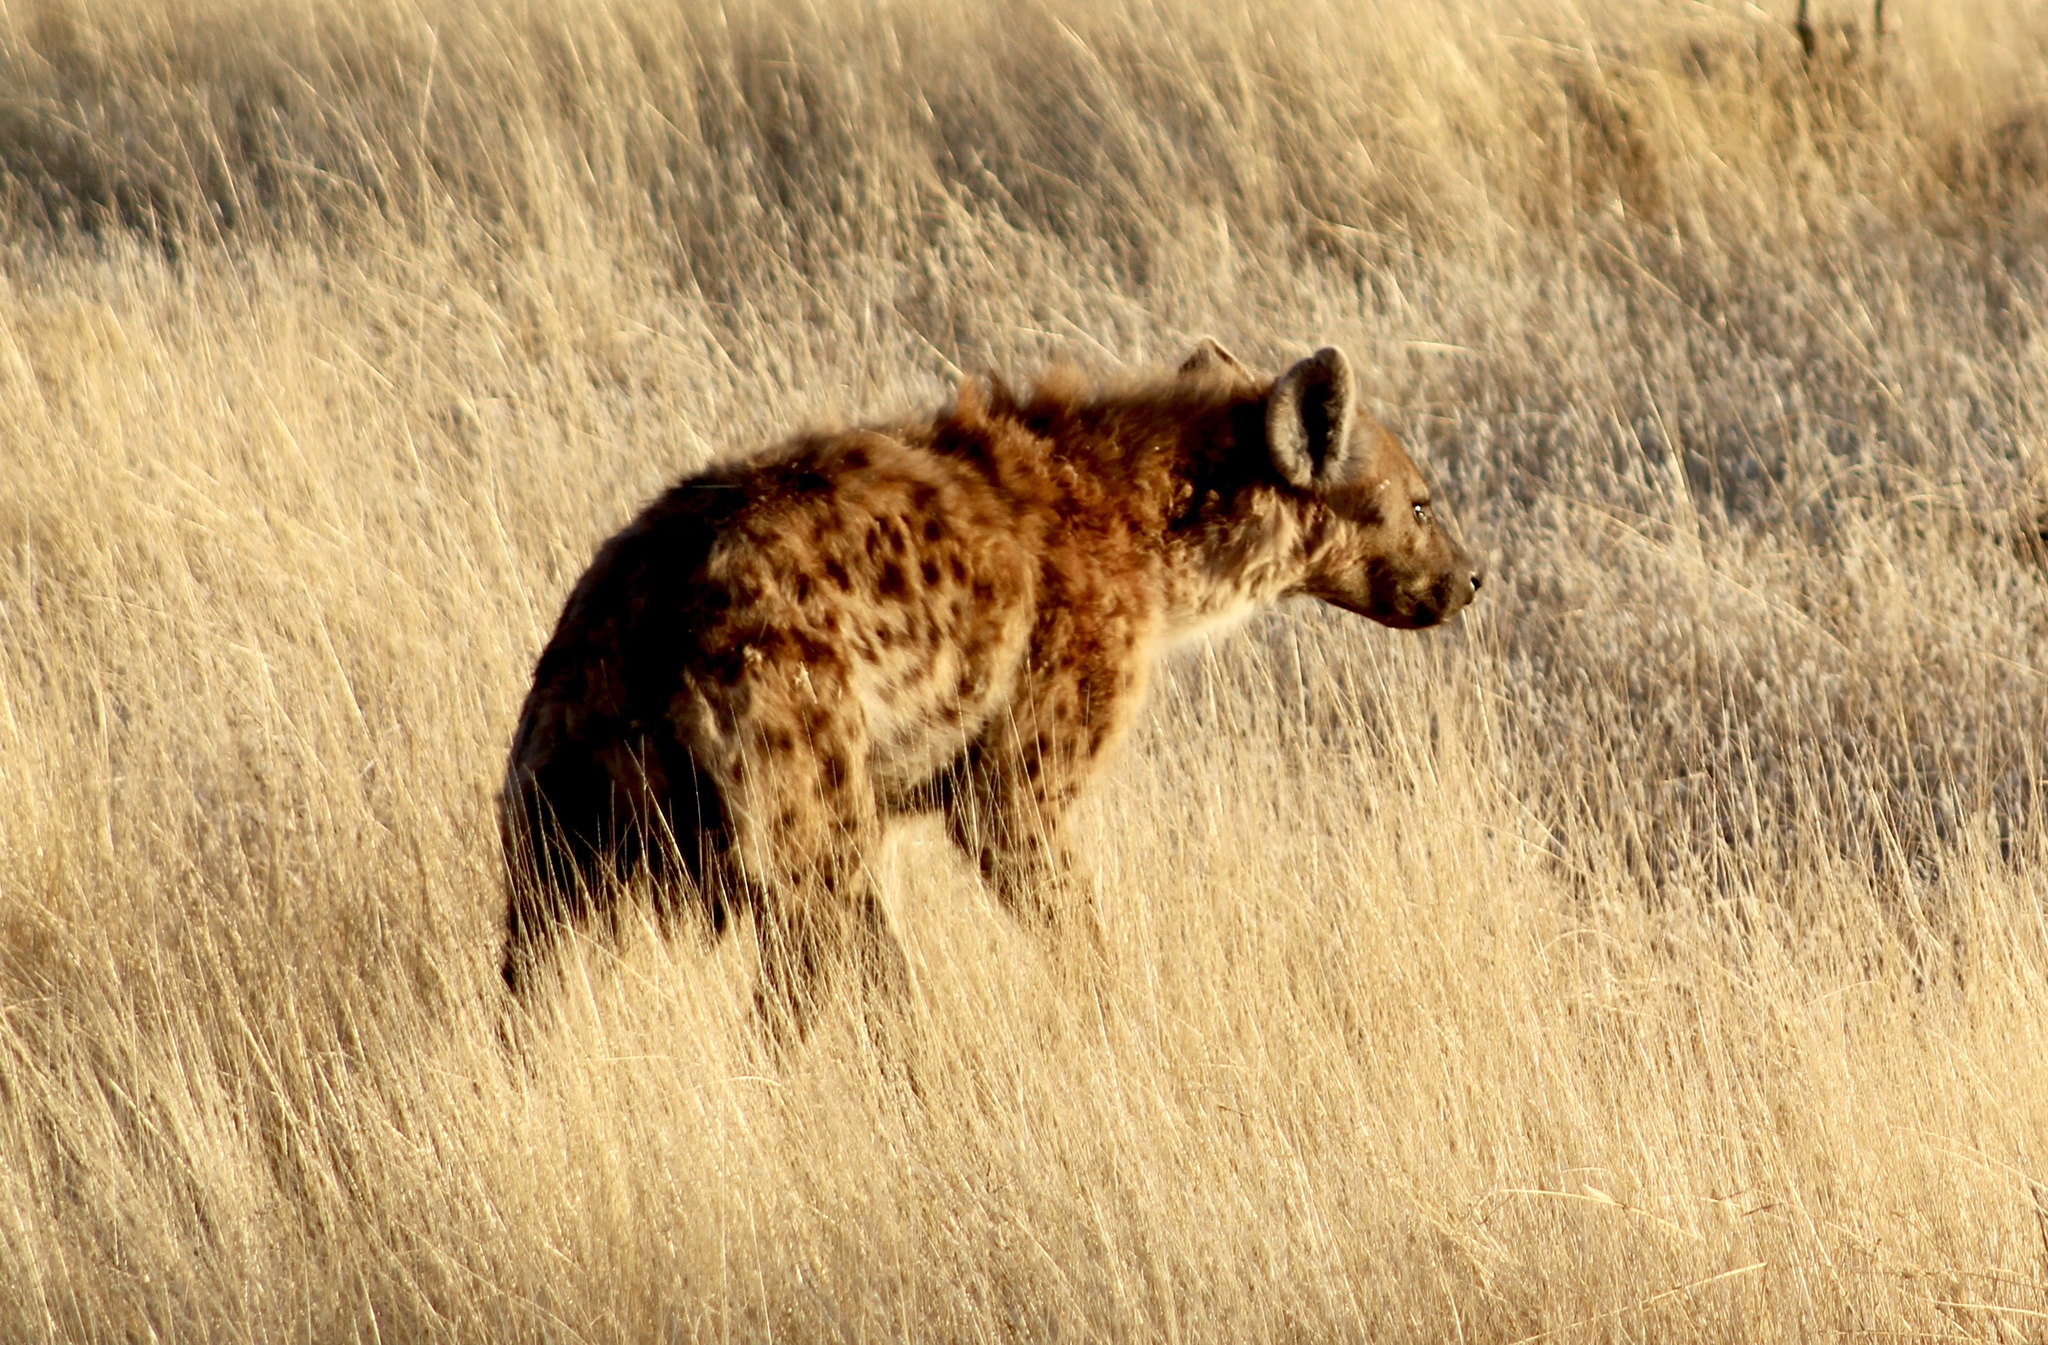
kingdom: Animalia
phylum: Chordata
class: Mammalia
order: Carnivora
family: Hyaenidae
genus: Crocuta
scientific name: Crocuta crocuta
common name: Spotted hyaena
